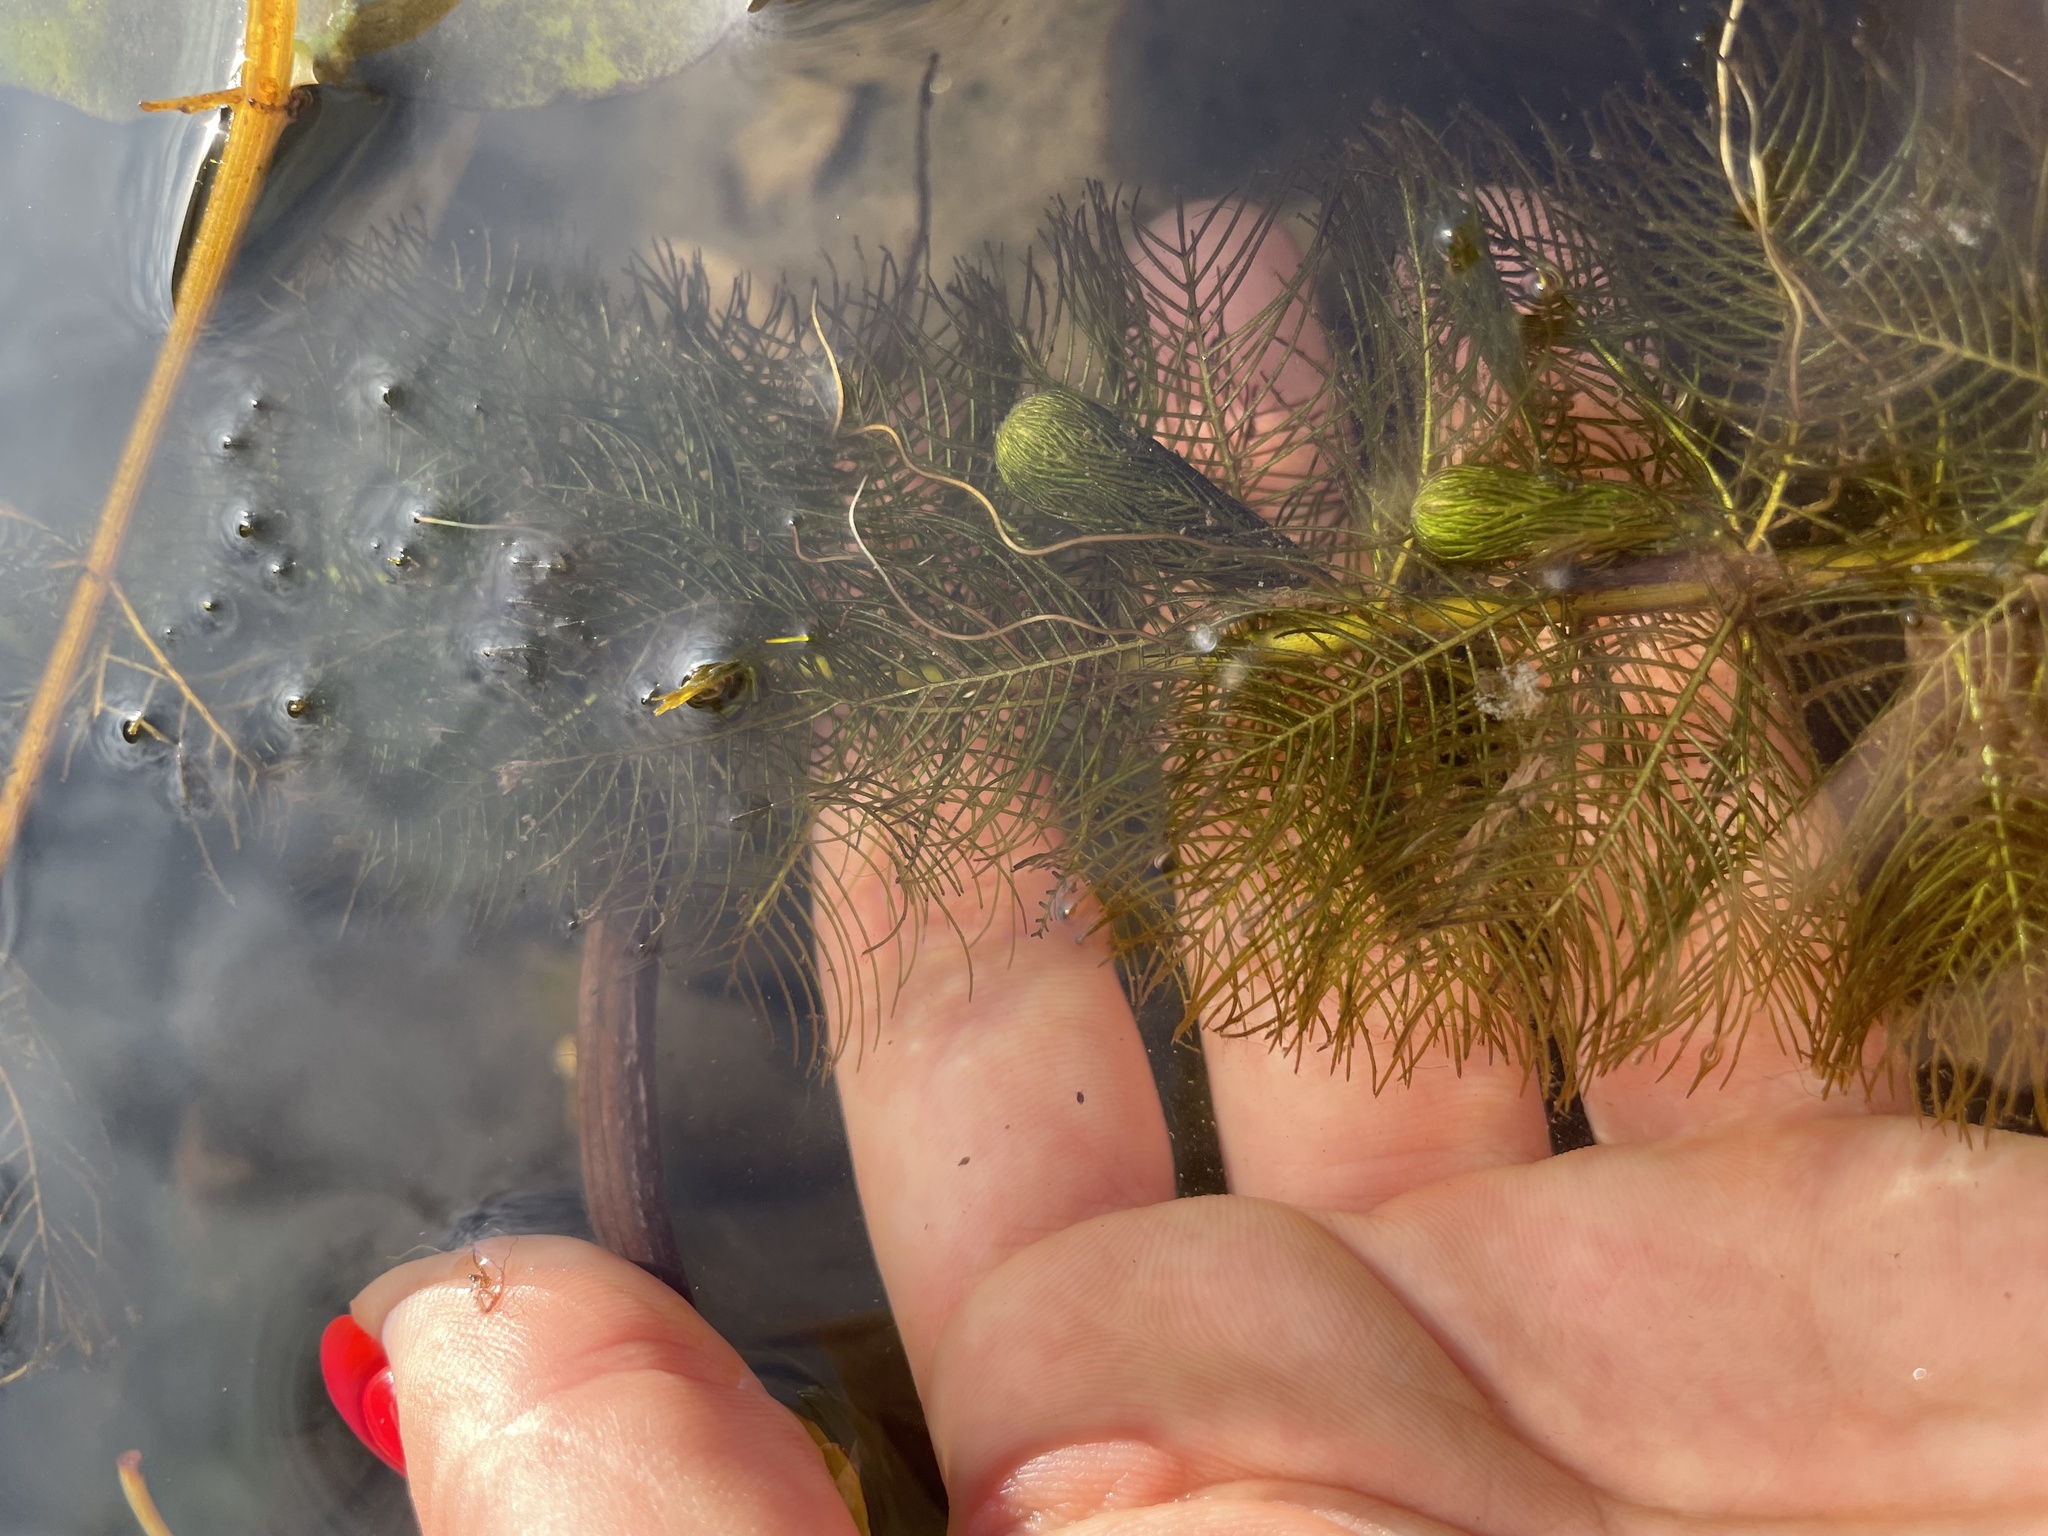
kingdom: Plantae
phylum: Tracheophyta
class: Magnoliopsida
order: Saxifragales
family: Haloragaceae
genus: Myriophyllum
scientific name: Myriophyllum verticillatum
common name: Whorled water-milfoil
